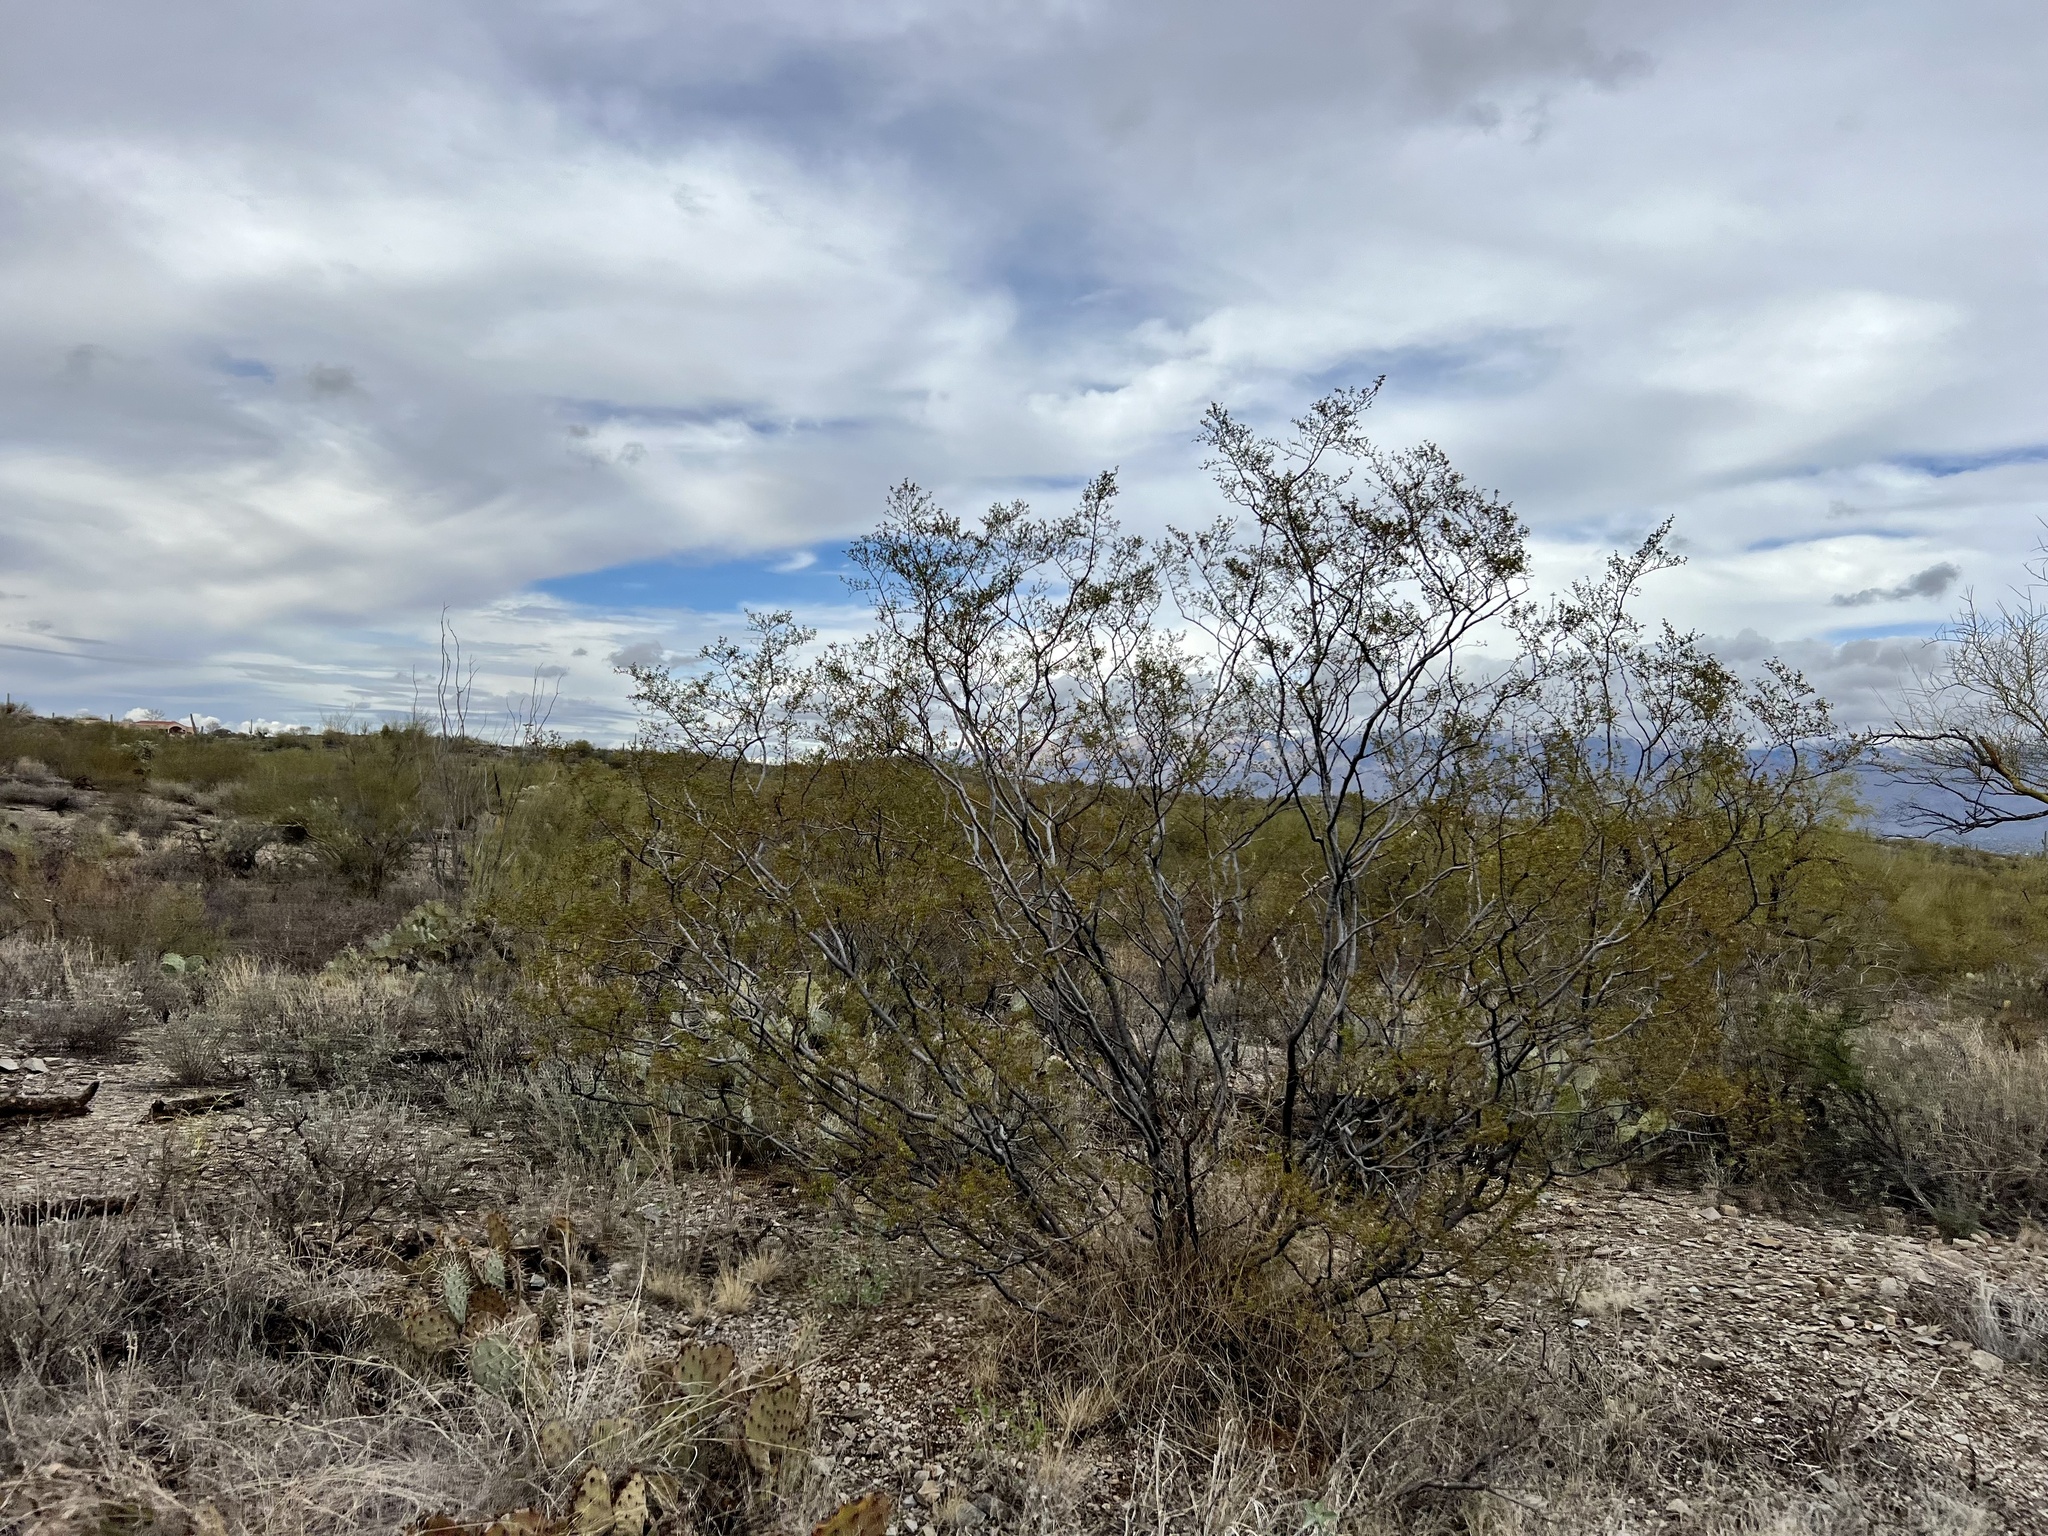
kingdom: Plantae
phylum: Tracheophyta
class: Magnoliopsida
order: Zygophyllales
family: Zygophyllaceae
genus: Larrea
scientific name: Larrea tridentata
